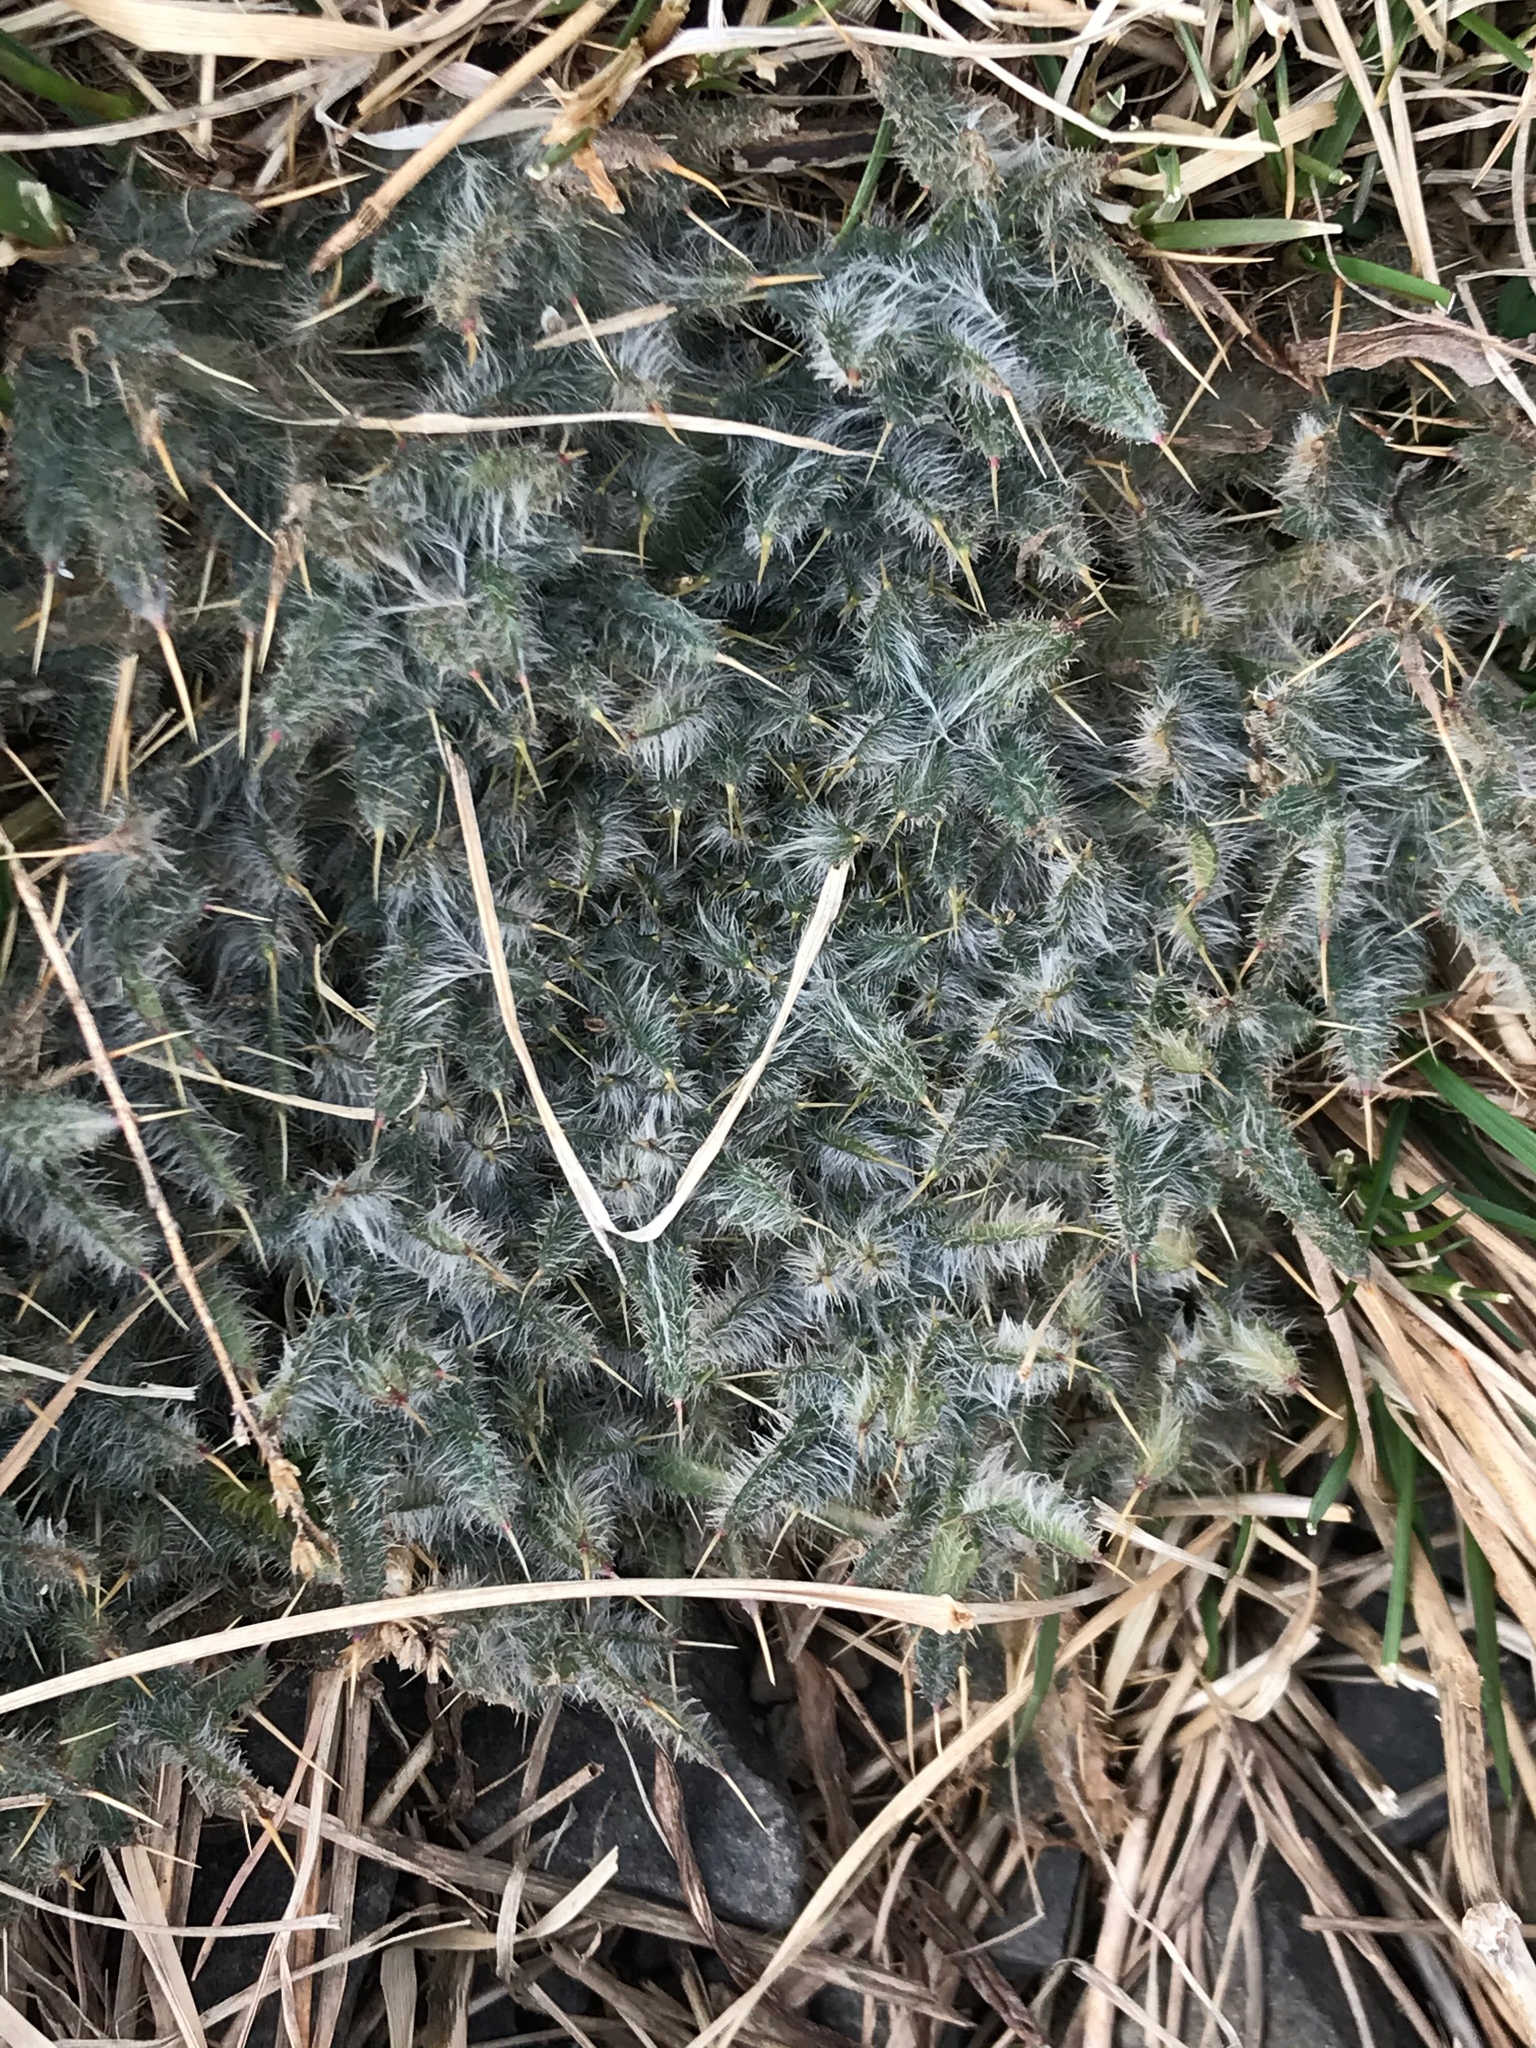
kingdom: Plantae
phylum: Tracheophyta
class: Magnoliopsida
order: Asterales
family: Asteraceae
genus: Cirsium
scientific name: Cirsium vulgare
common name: Bull thistle
